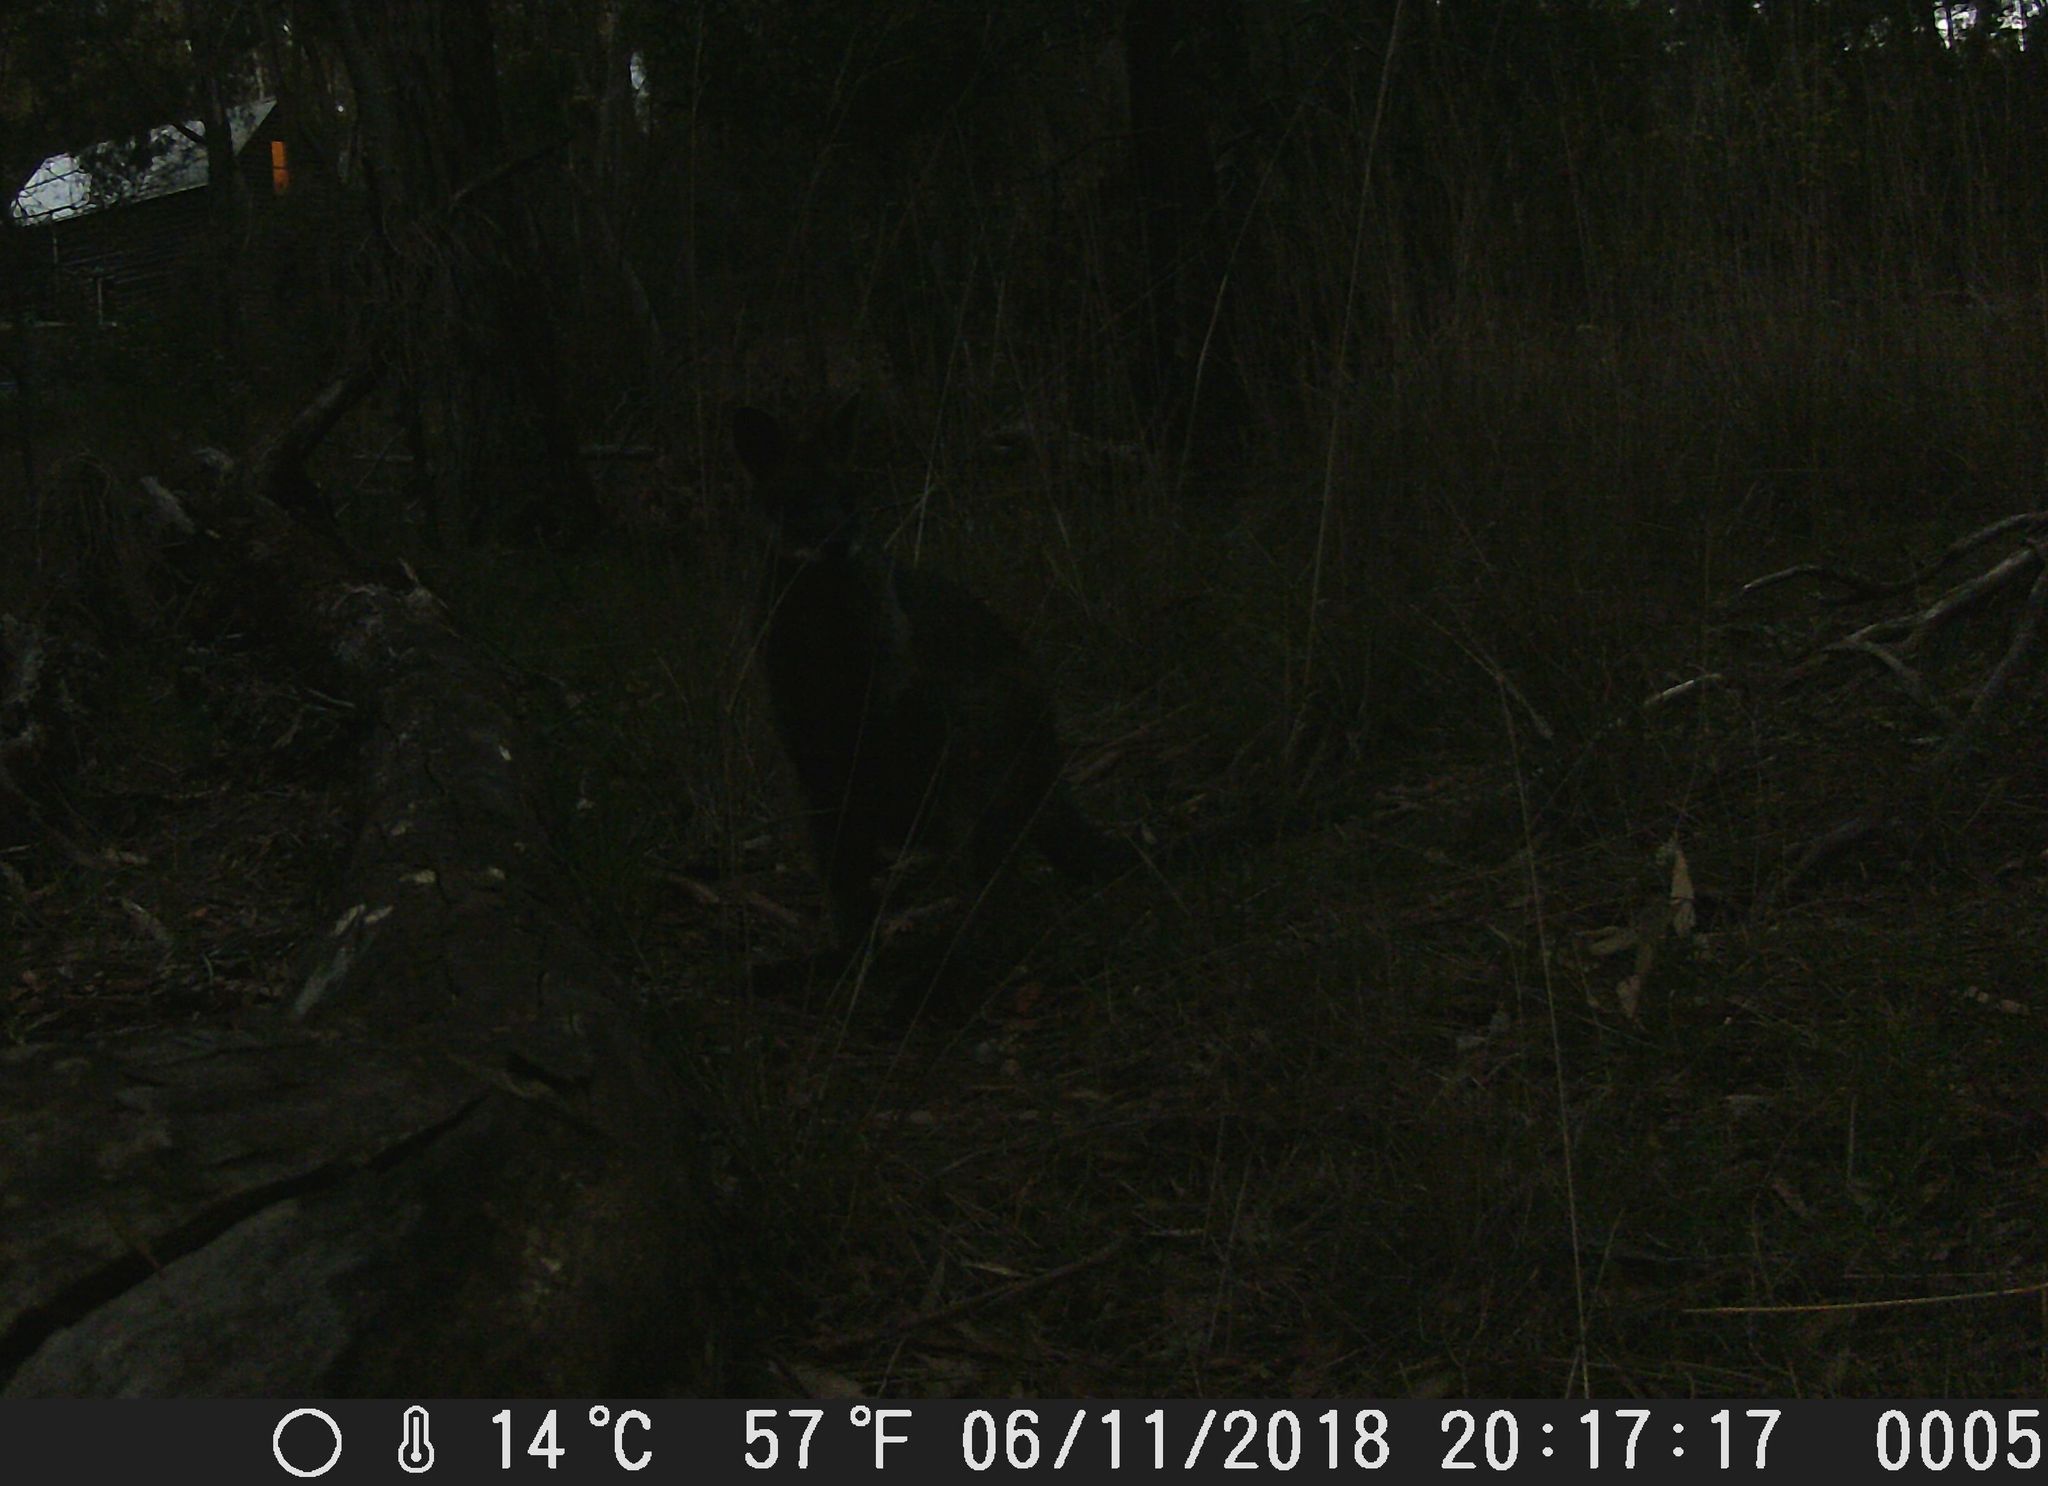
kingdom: Animalia
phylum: Chordata
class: Mammalia
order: Diprotodontia
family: Macropodidae
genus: Wallabia
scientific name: Wallabia bicolor
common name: Swamp wallaby
